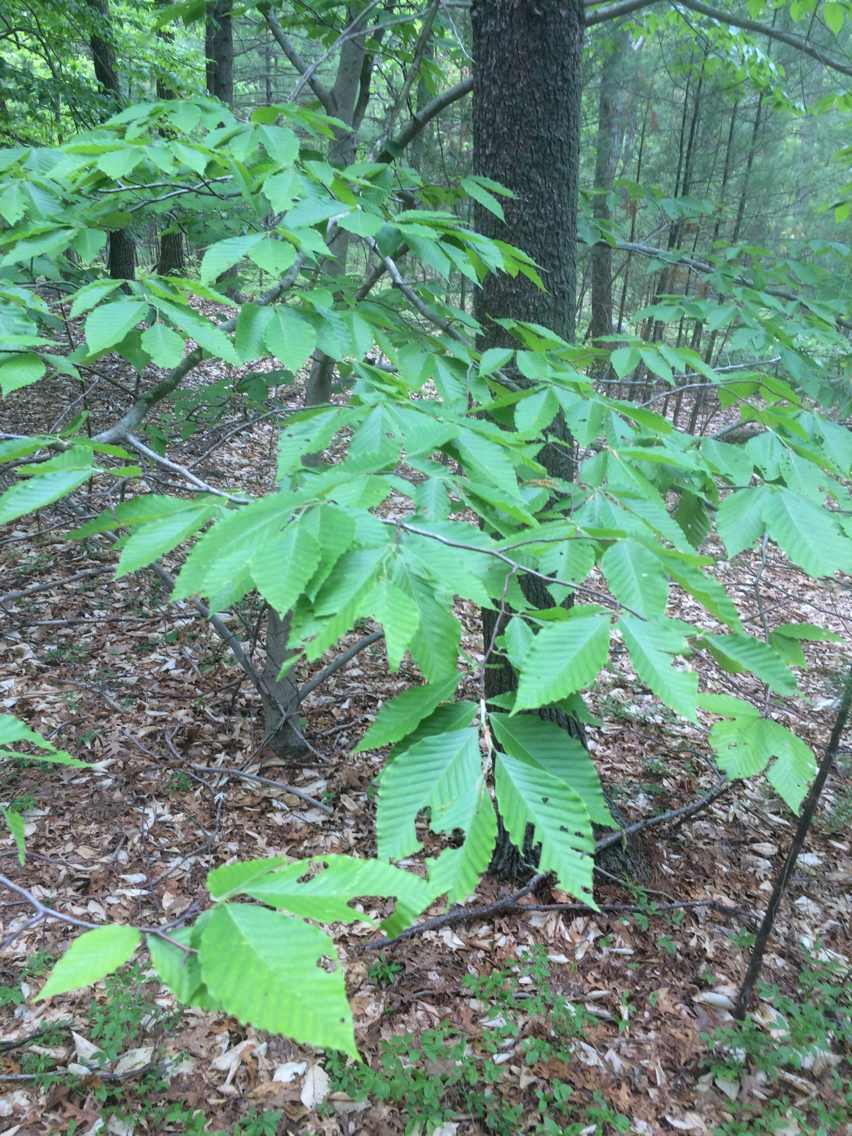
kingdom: Plantae
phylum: Tracheophyta
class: Magnoliopsida
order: Fagales
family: Fagaceae
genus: Fagus
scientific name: Fagus grandifolia
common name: American beech
